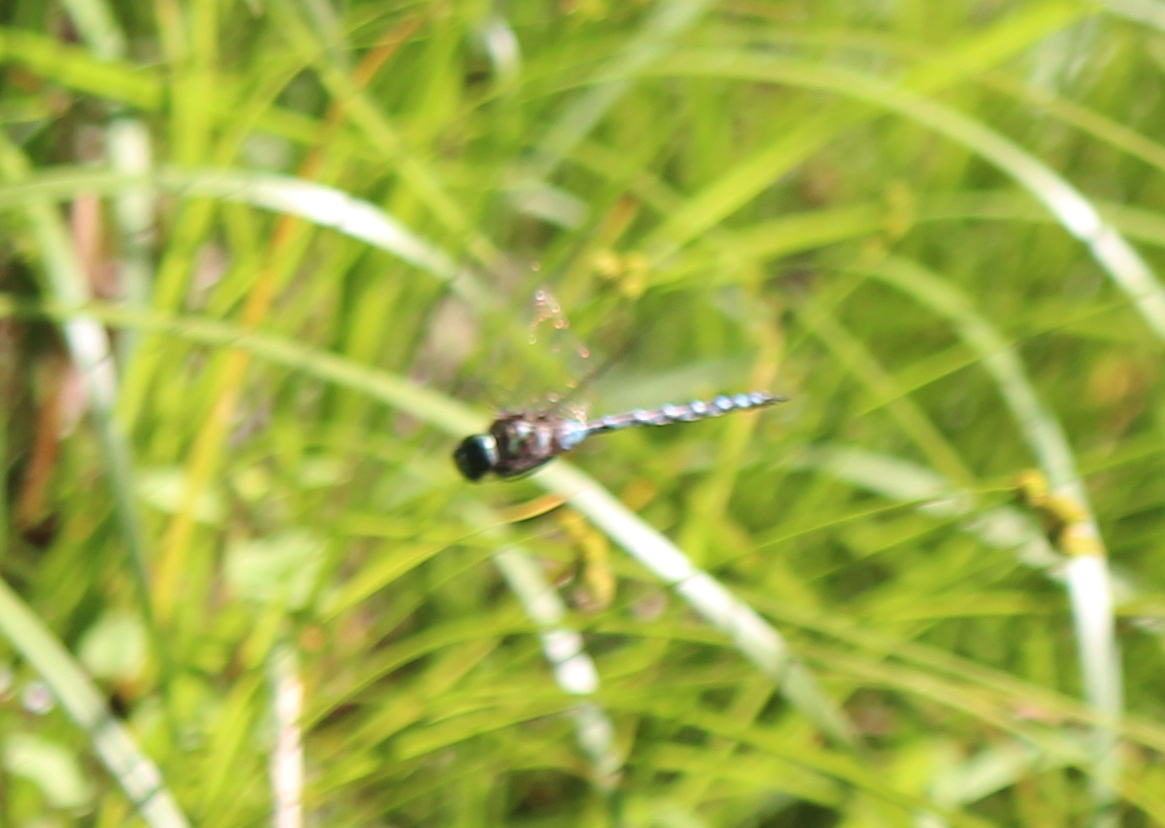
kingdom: Animalia
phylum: Arthropoda
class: Insecta
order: Odonata
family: Aeshnidae
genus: Aeshna
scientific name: Aeshna canadensis
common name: Canada darner
